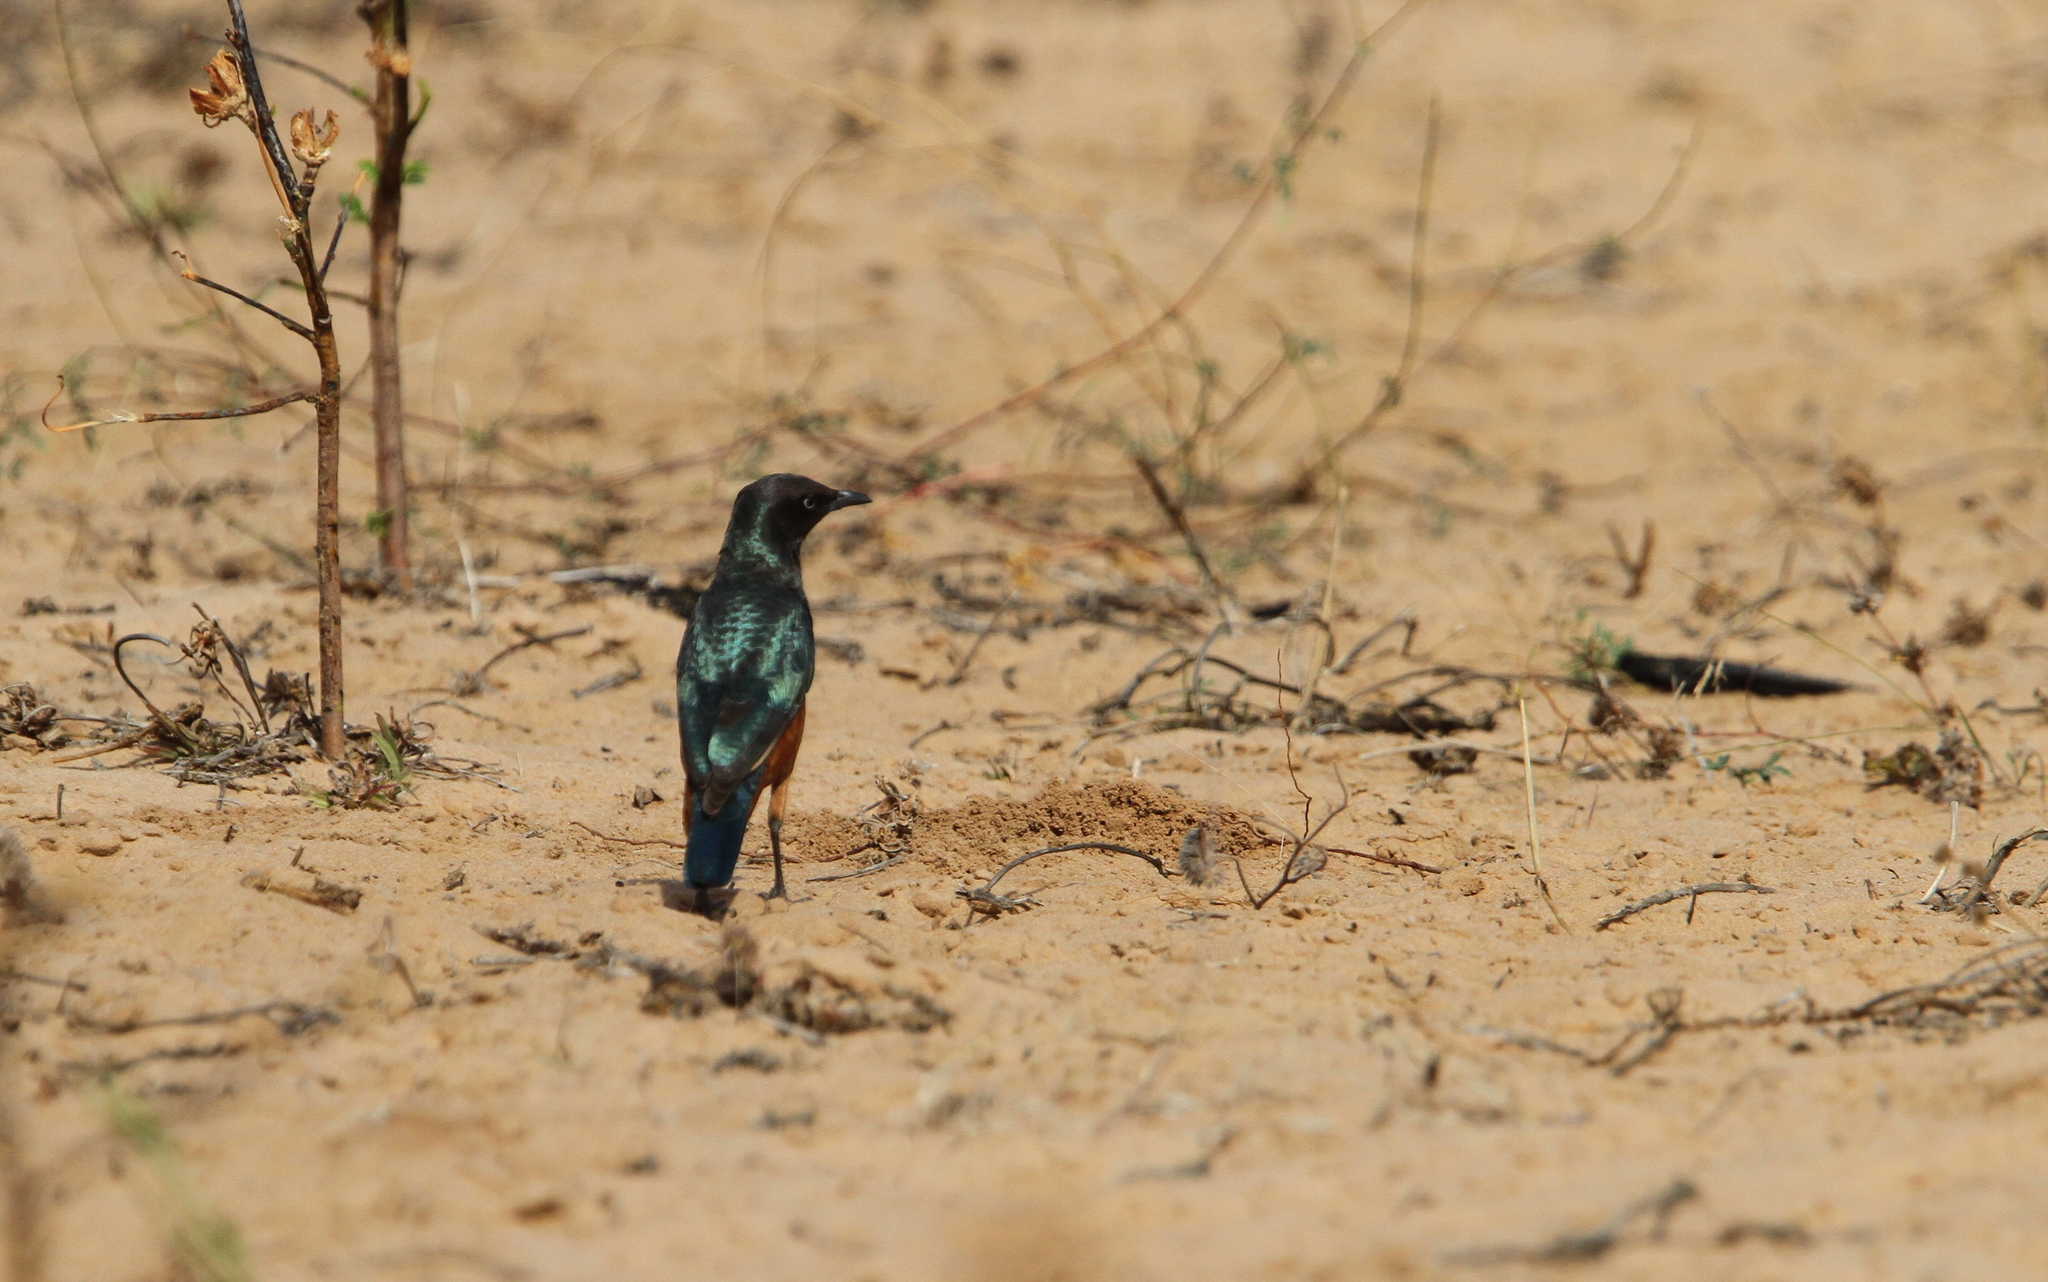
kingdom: Animalia
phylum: Chordata
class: Aves
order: Passeriformes
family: Sturnidae
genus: Lamprotornis
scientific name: Lamprotornis pulcher
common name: Chestnut-bellied starling
